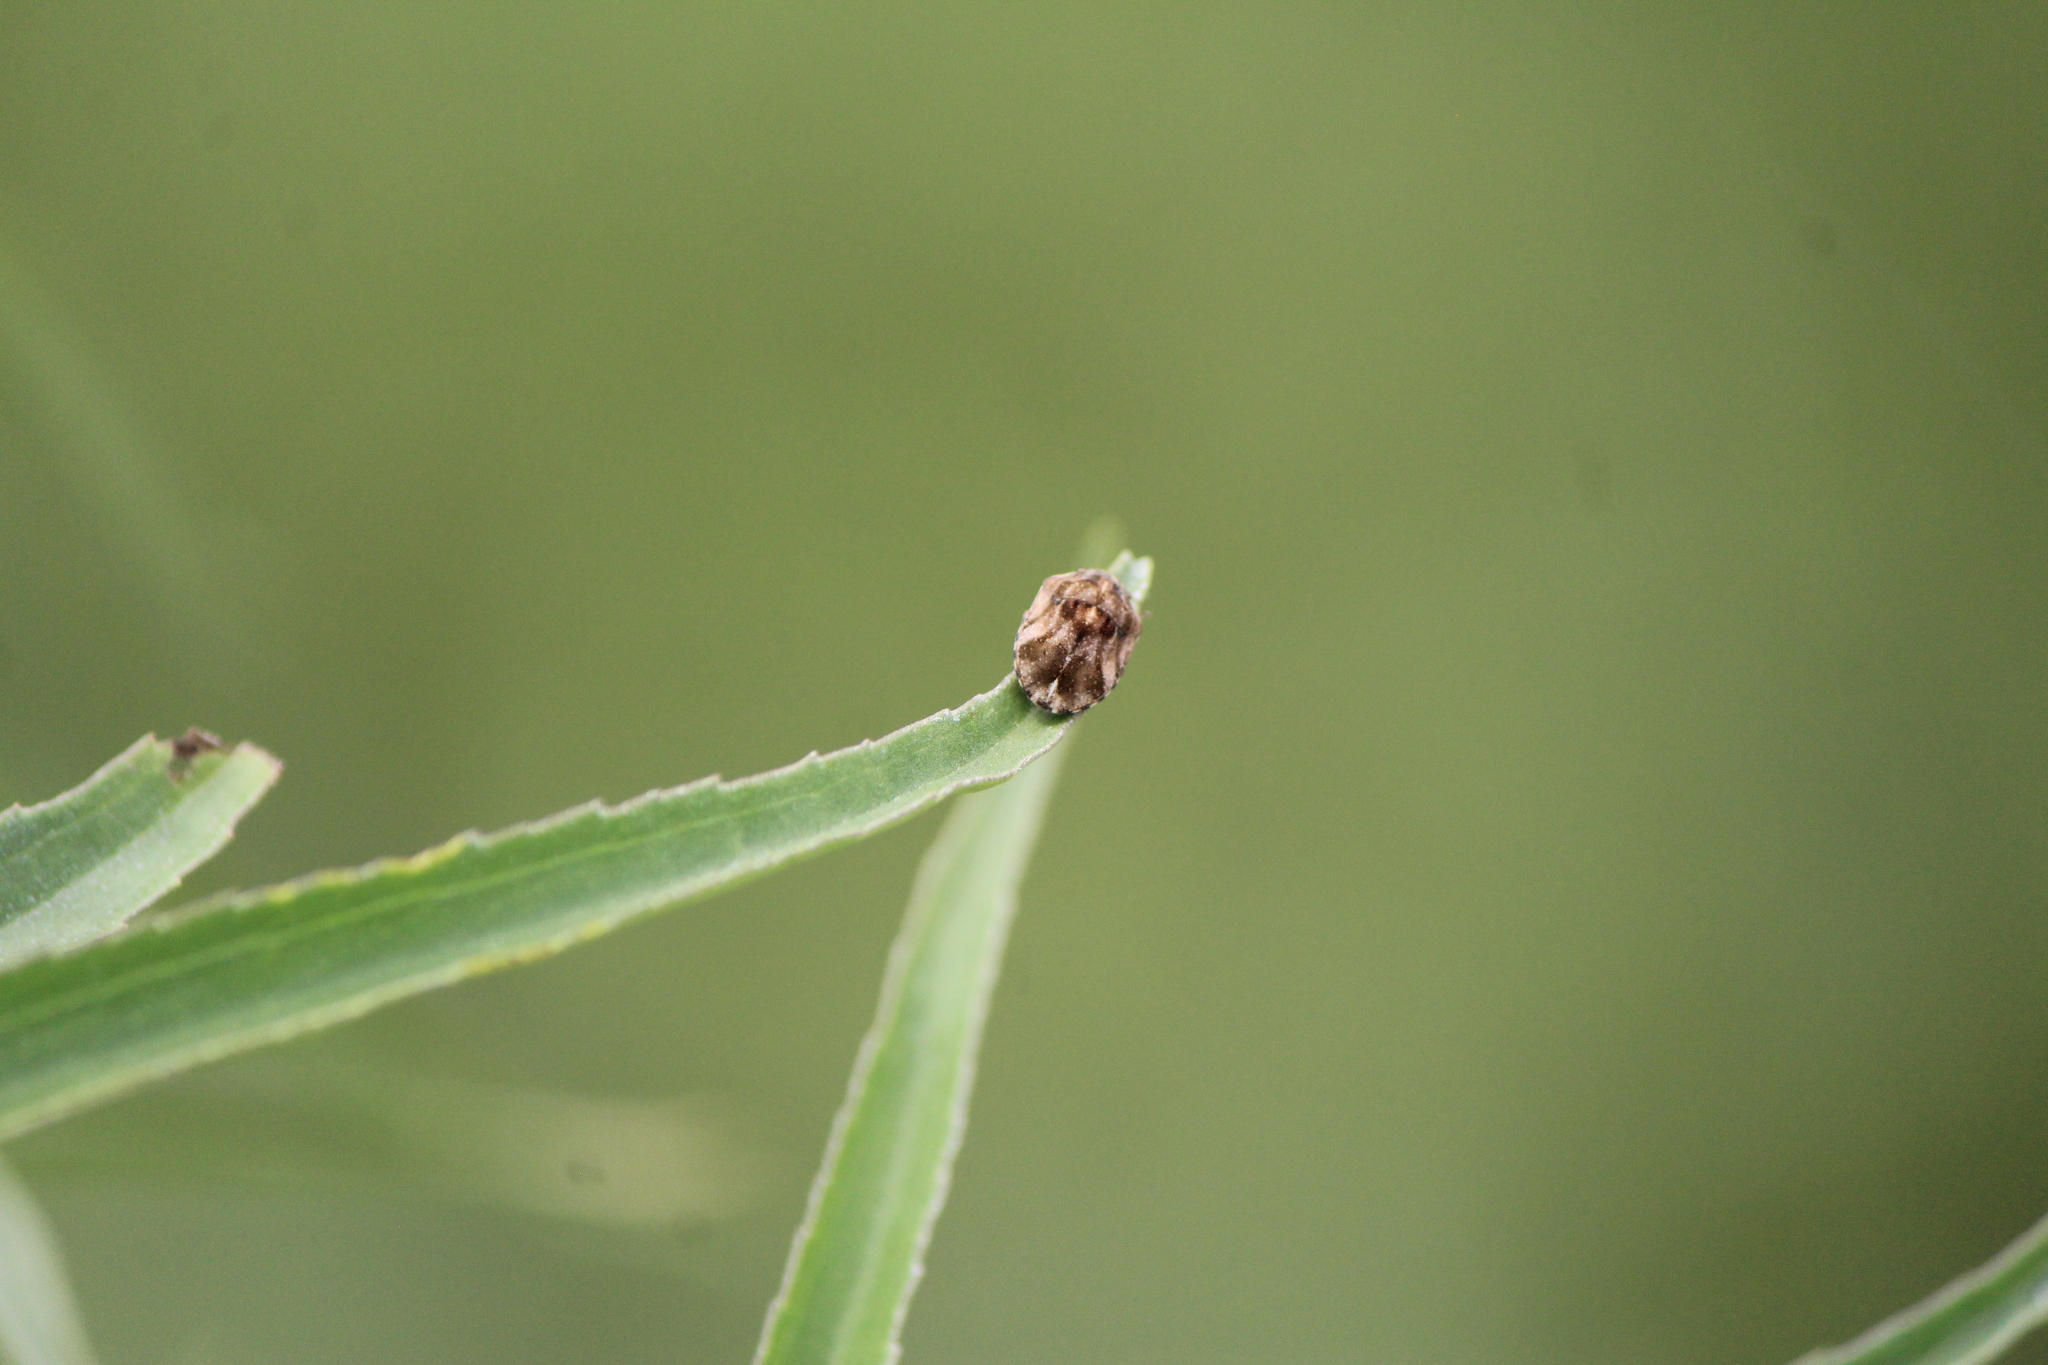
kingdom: Animalia
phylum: Arthropoda
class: Insecta
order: Hemiptera
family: Scutelleridae
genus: Homaemus
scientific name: Homaemus proteus
